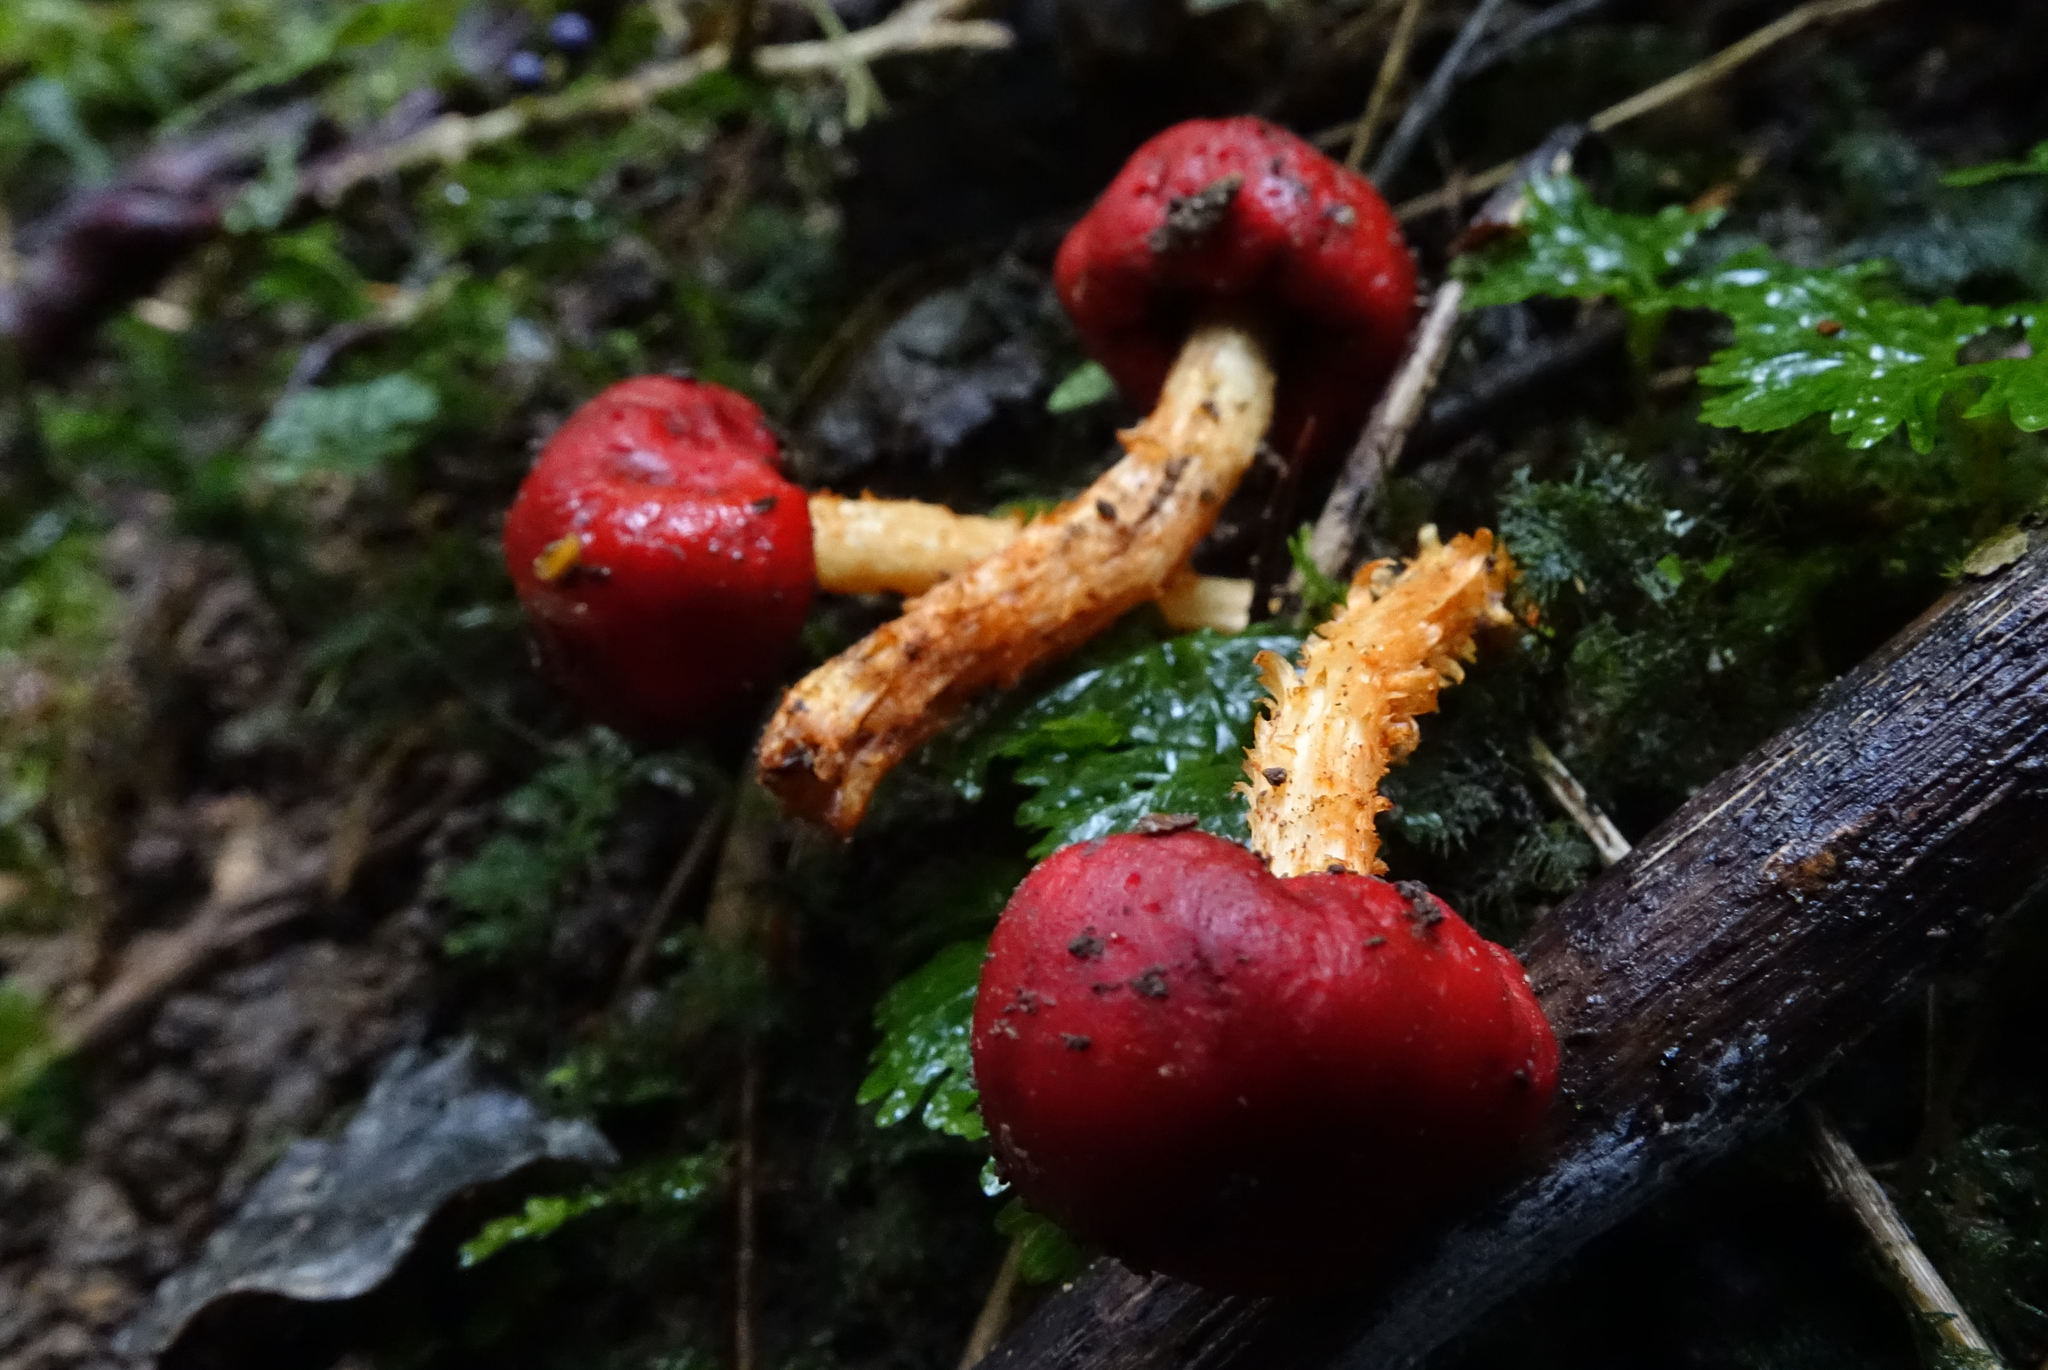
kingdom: Fungi
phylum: Basidiomycota
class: Agaricomycetes
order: Agaricales
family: Strophariaceae
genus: Leratiomyces
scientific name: Leratiomyces erythrocephalus
